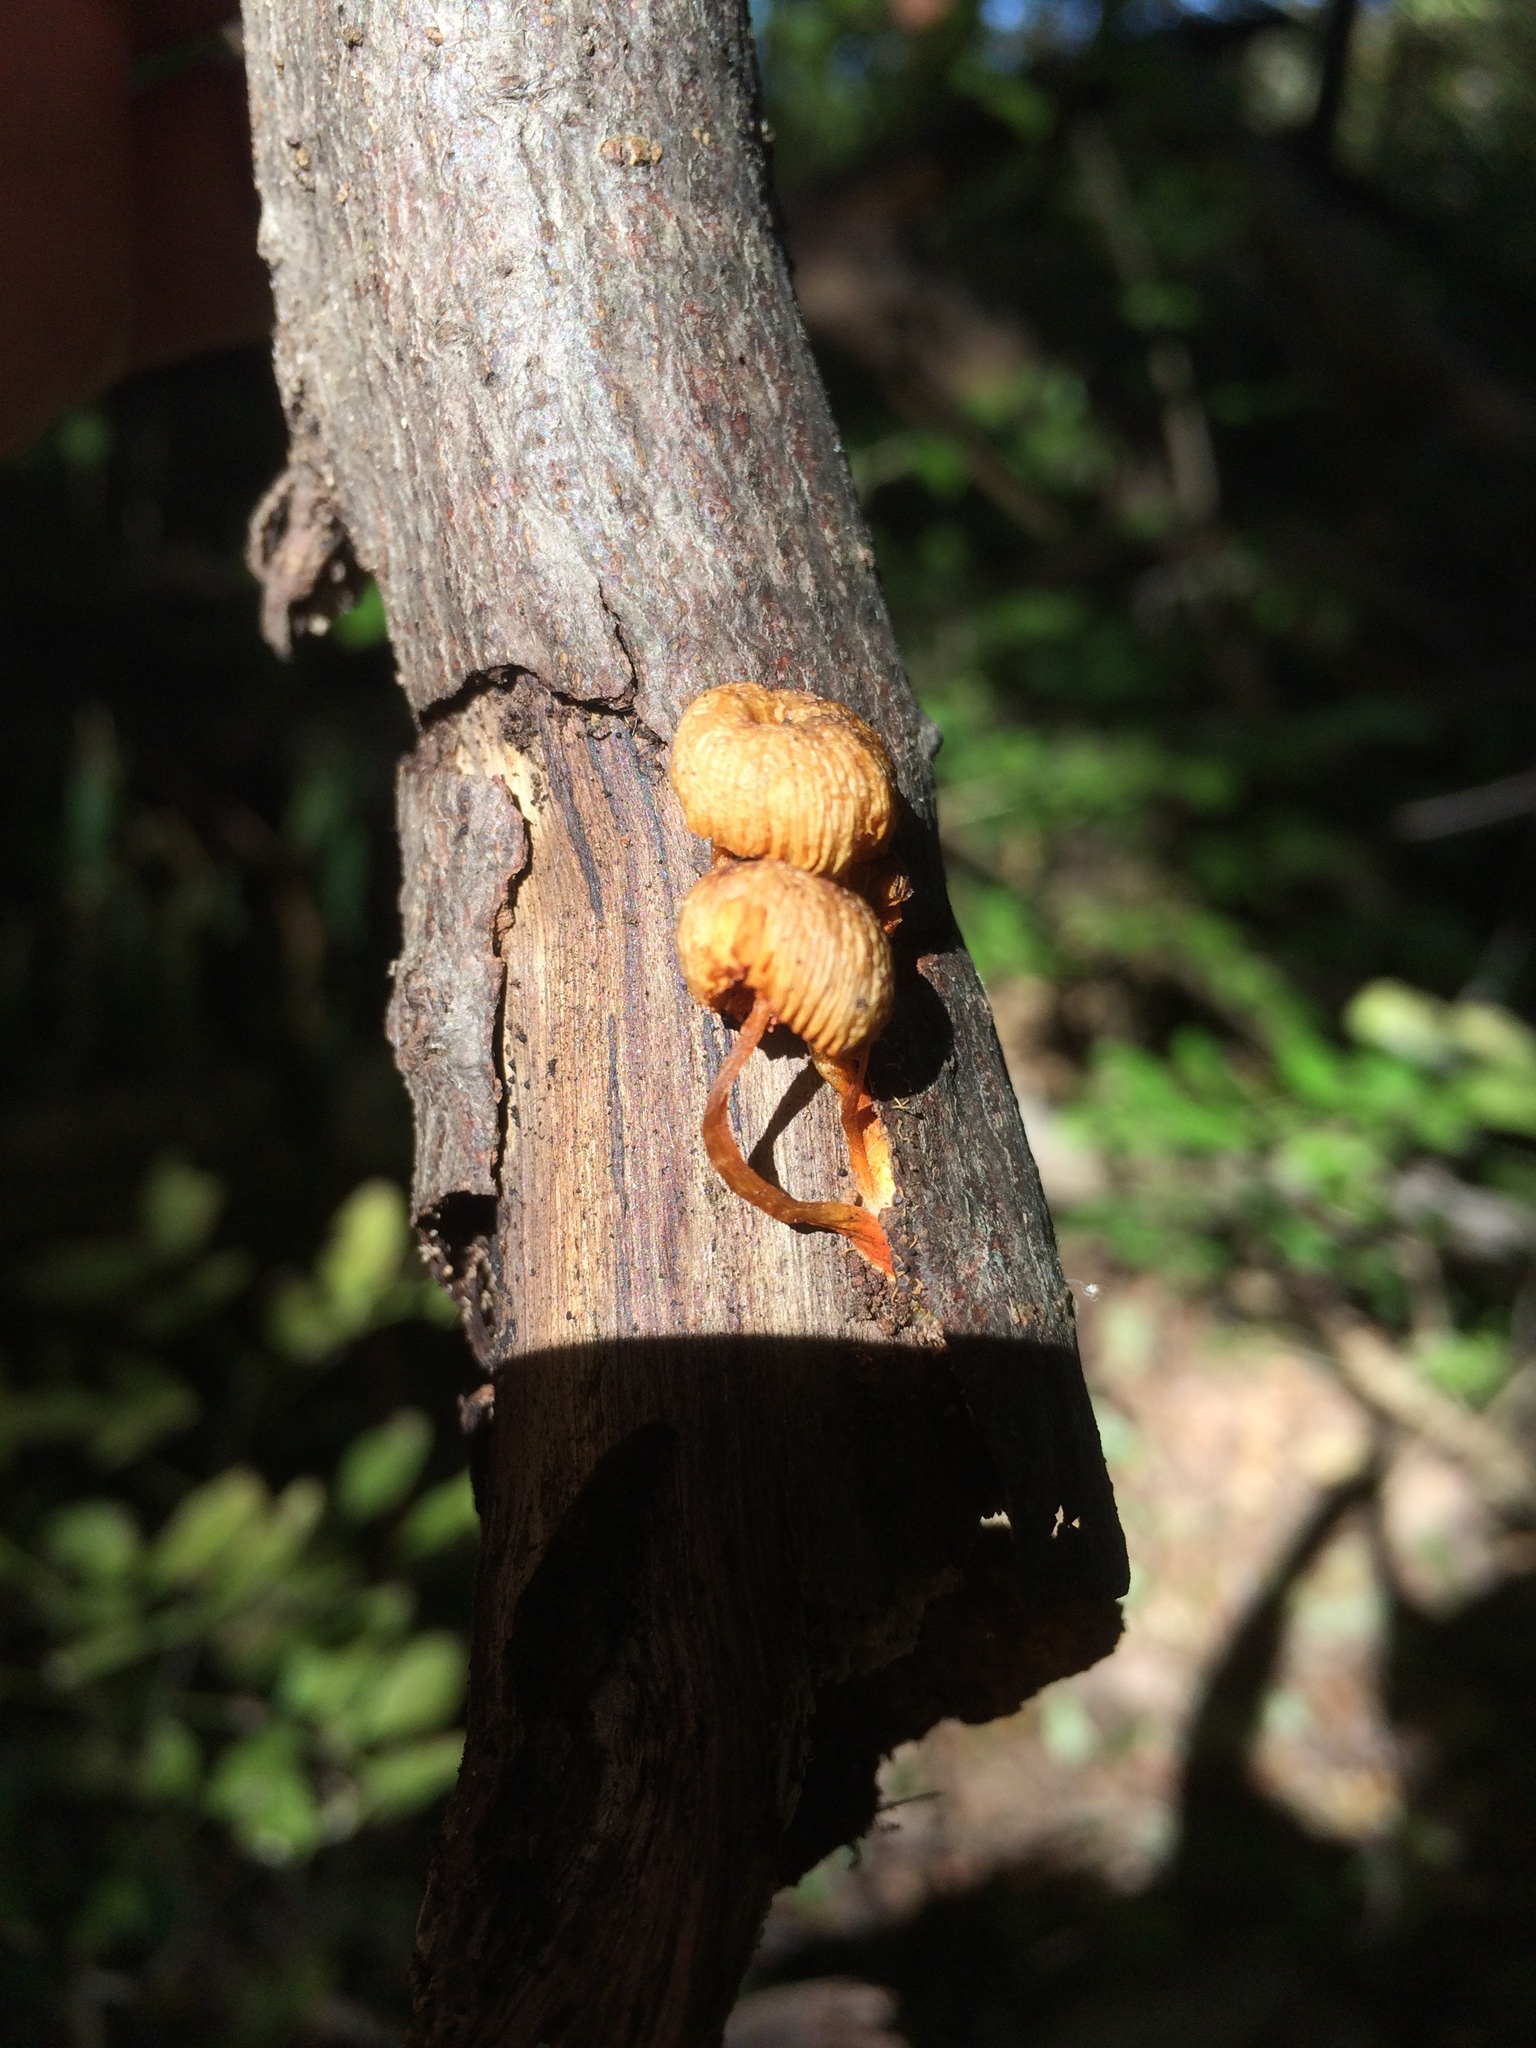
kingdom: Fungi
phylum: Basidiomycota
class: Agaricomycetes
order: Agaricales
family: Mycenaceae
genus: Mycena
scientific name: Mycena leaiana
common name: Orange mycena
